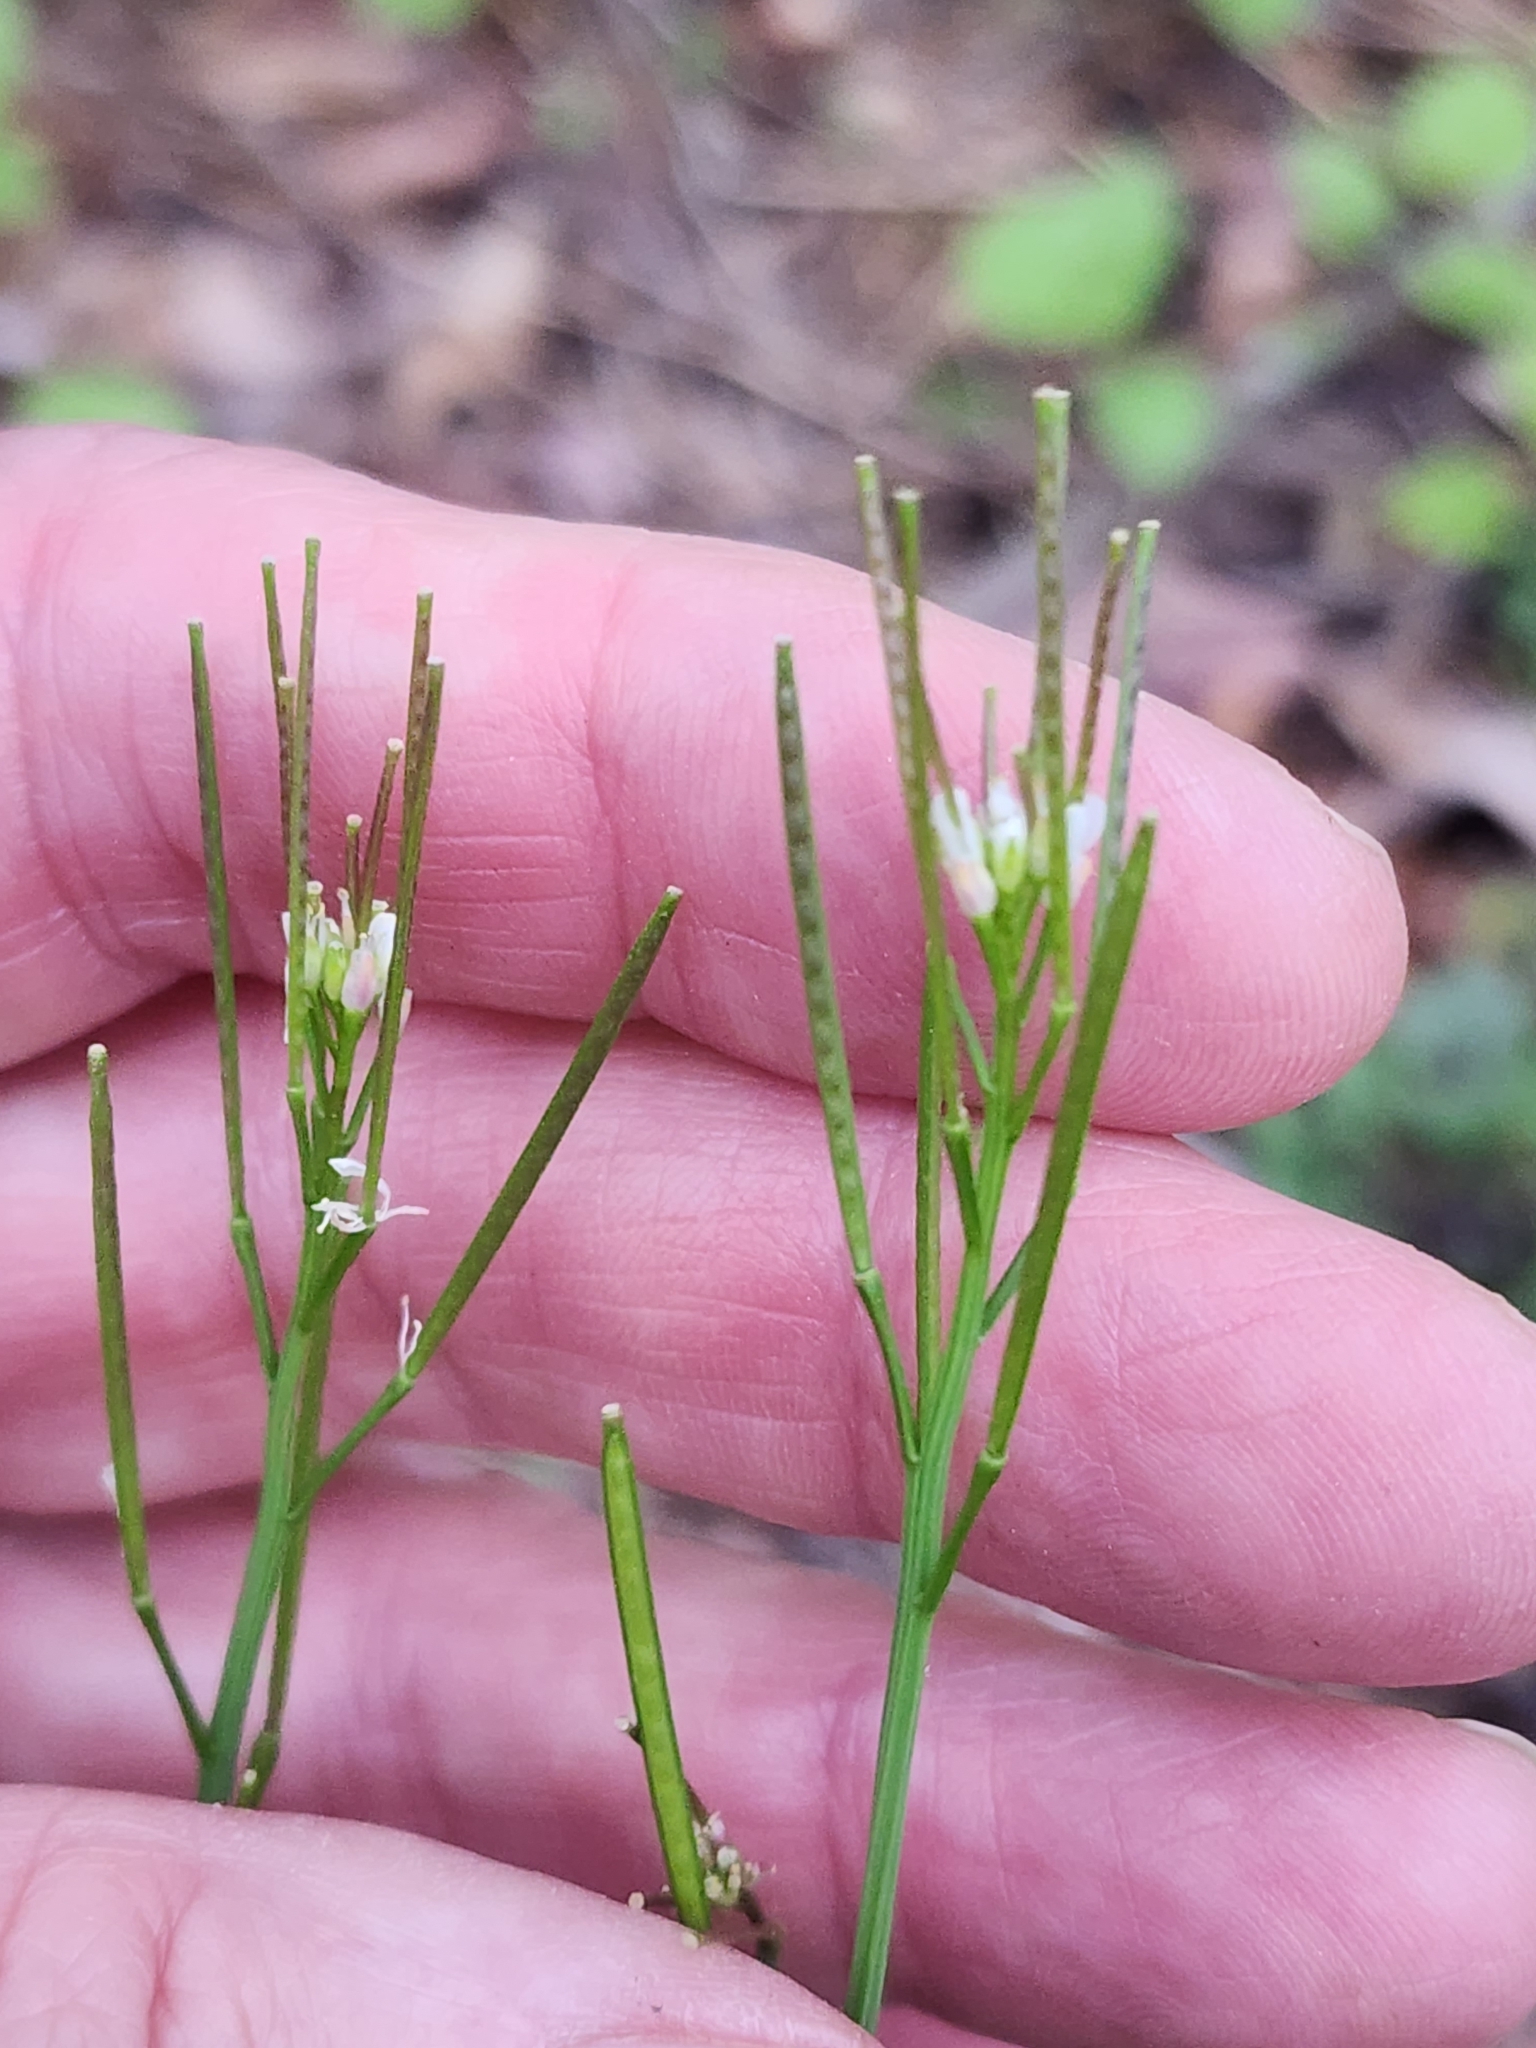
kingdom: Plantae
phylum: Tracheophyta
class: Magnoliopsida
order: Brassicales
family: Brassicaceae
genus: Cardamine
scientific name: Cardamine hirsuta
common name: Hairy bittercress
